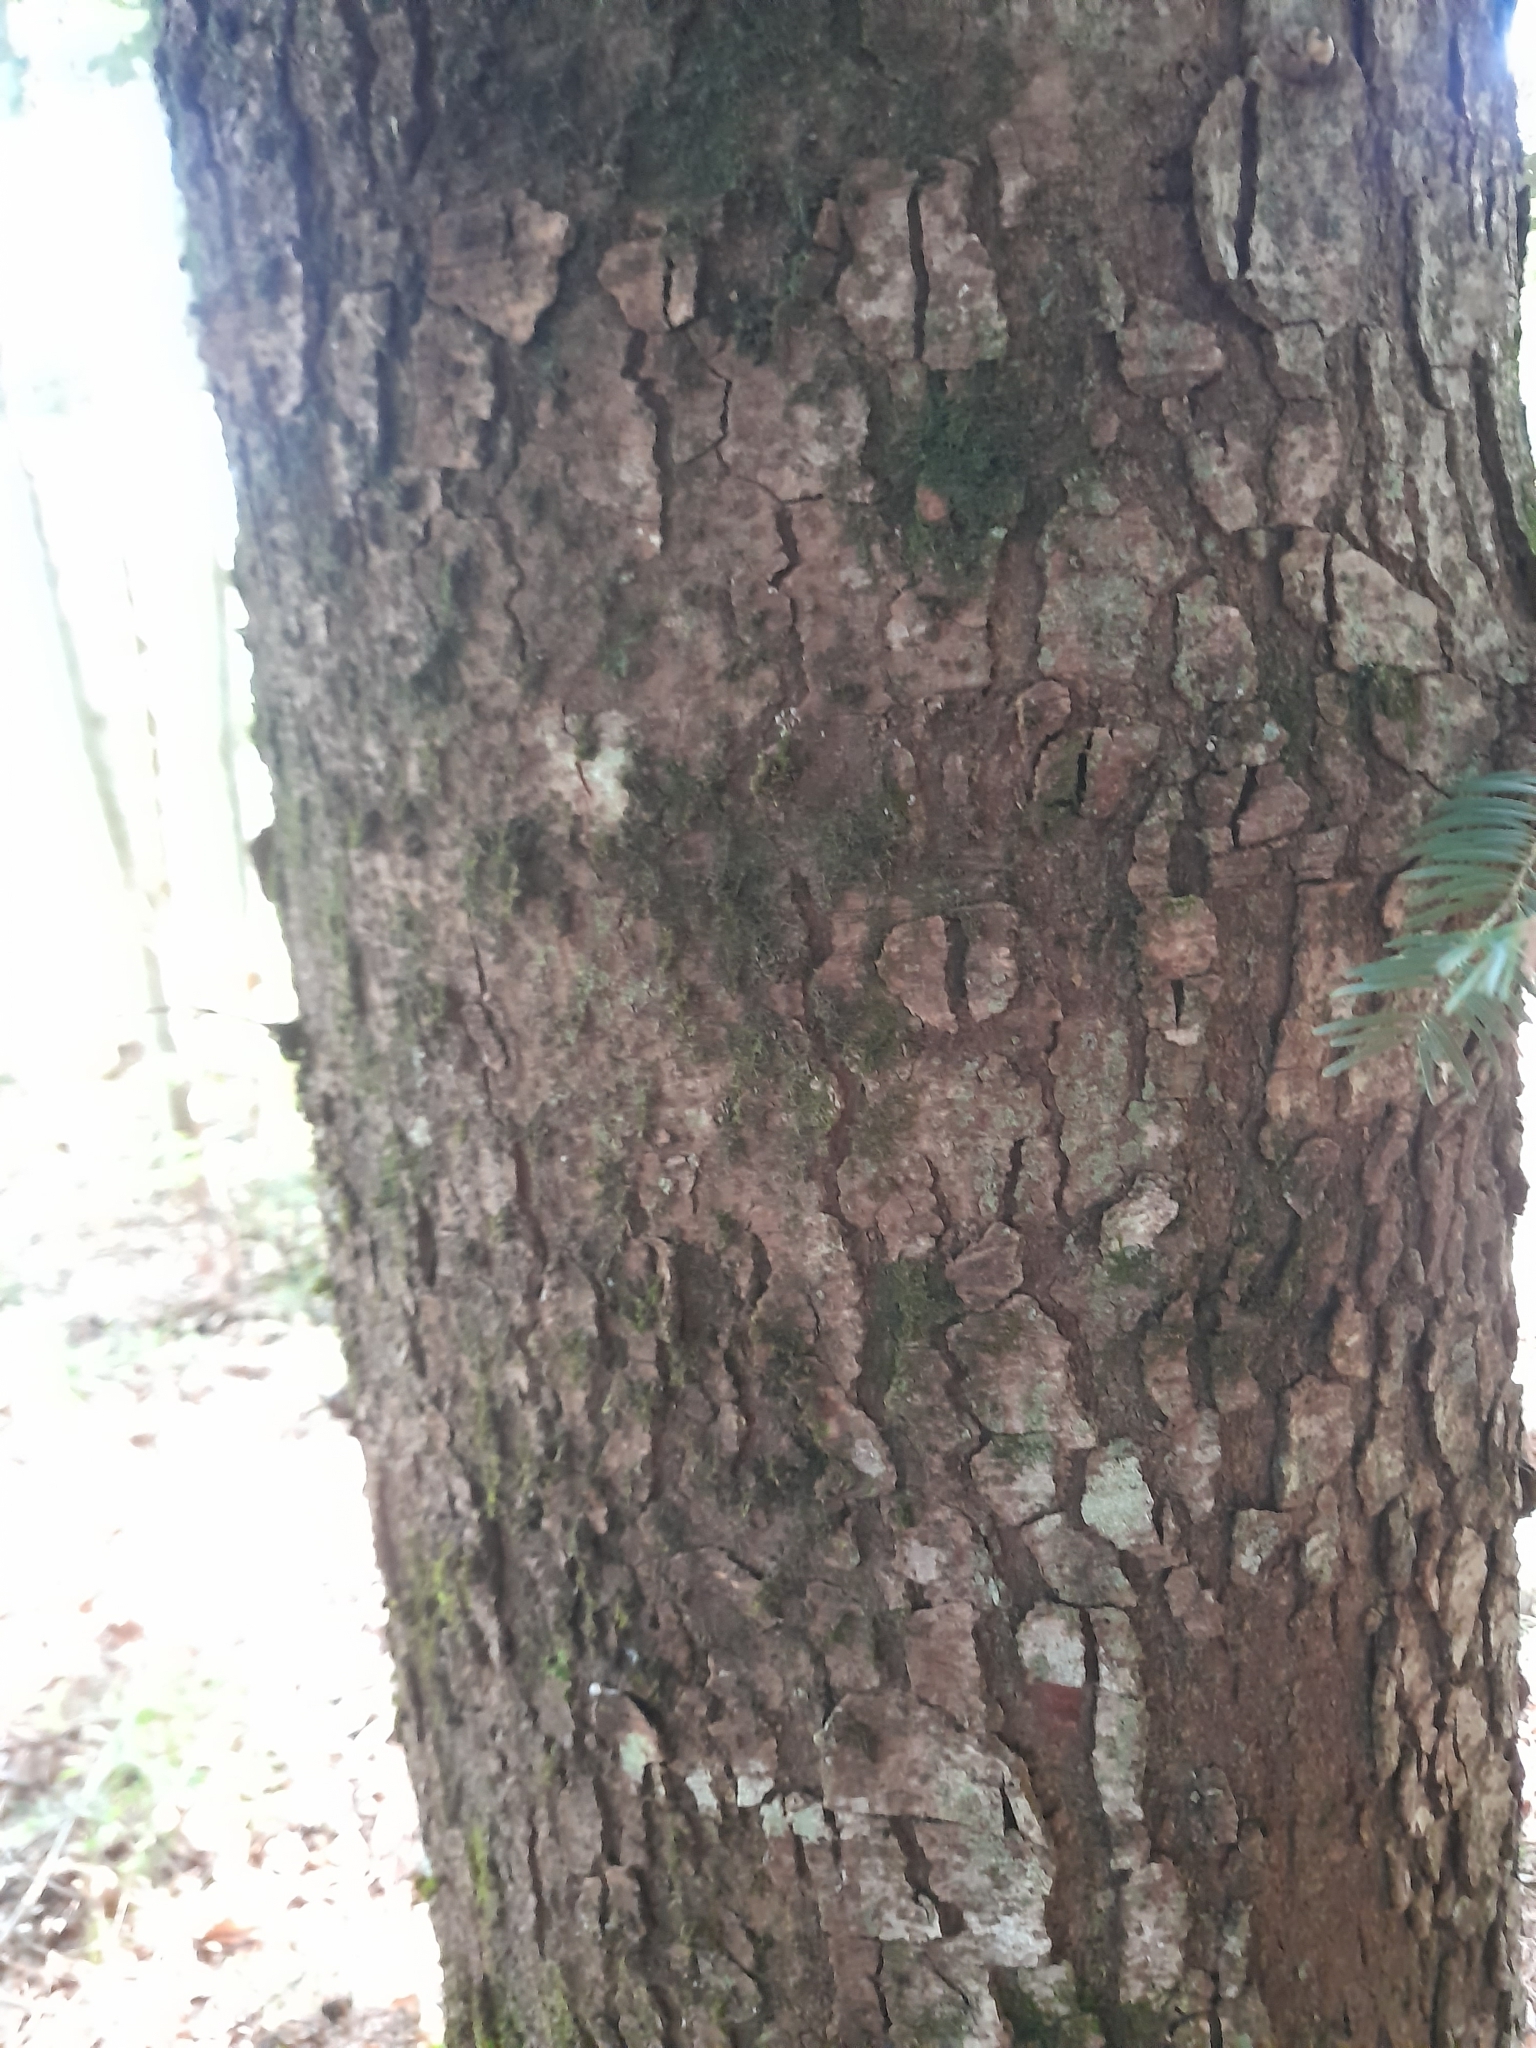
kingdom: Plantae
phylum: Tracheophyta
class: Pinopsida
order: Pinales
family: Pinaceae
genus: Abies
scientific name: Abies alba
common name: Silver fir
